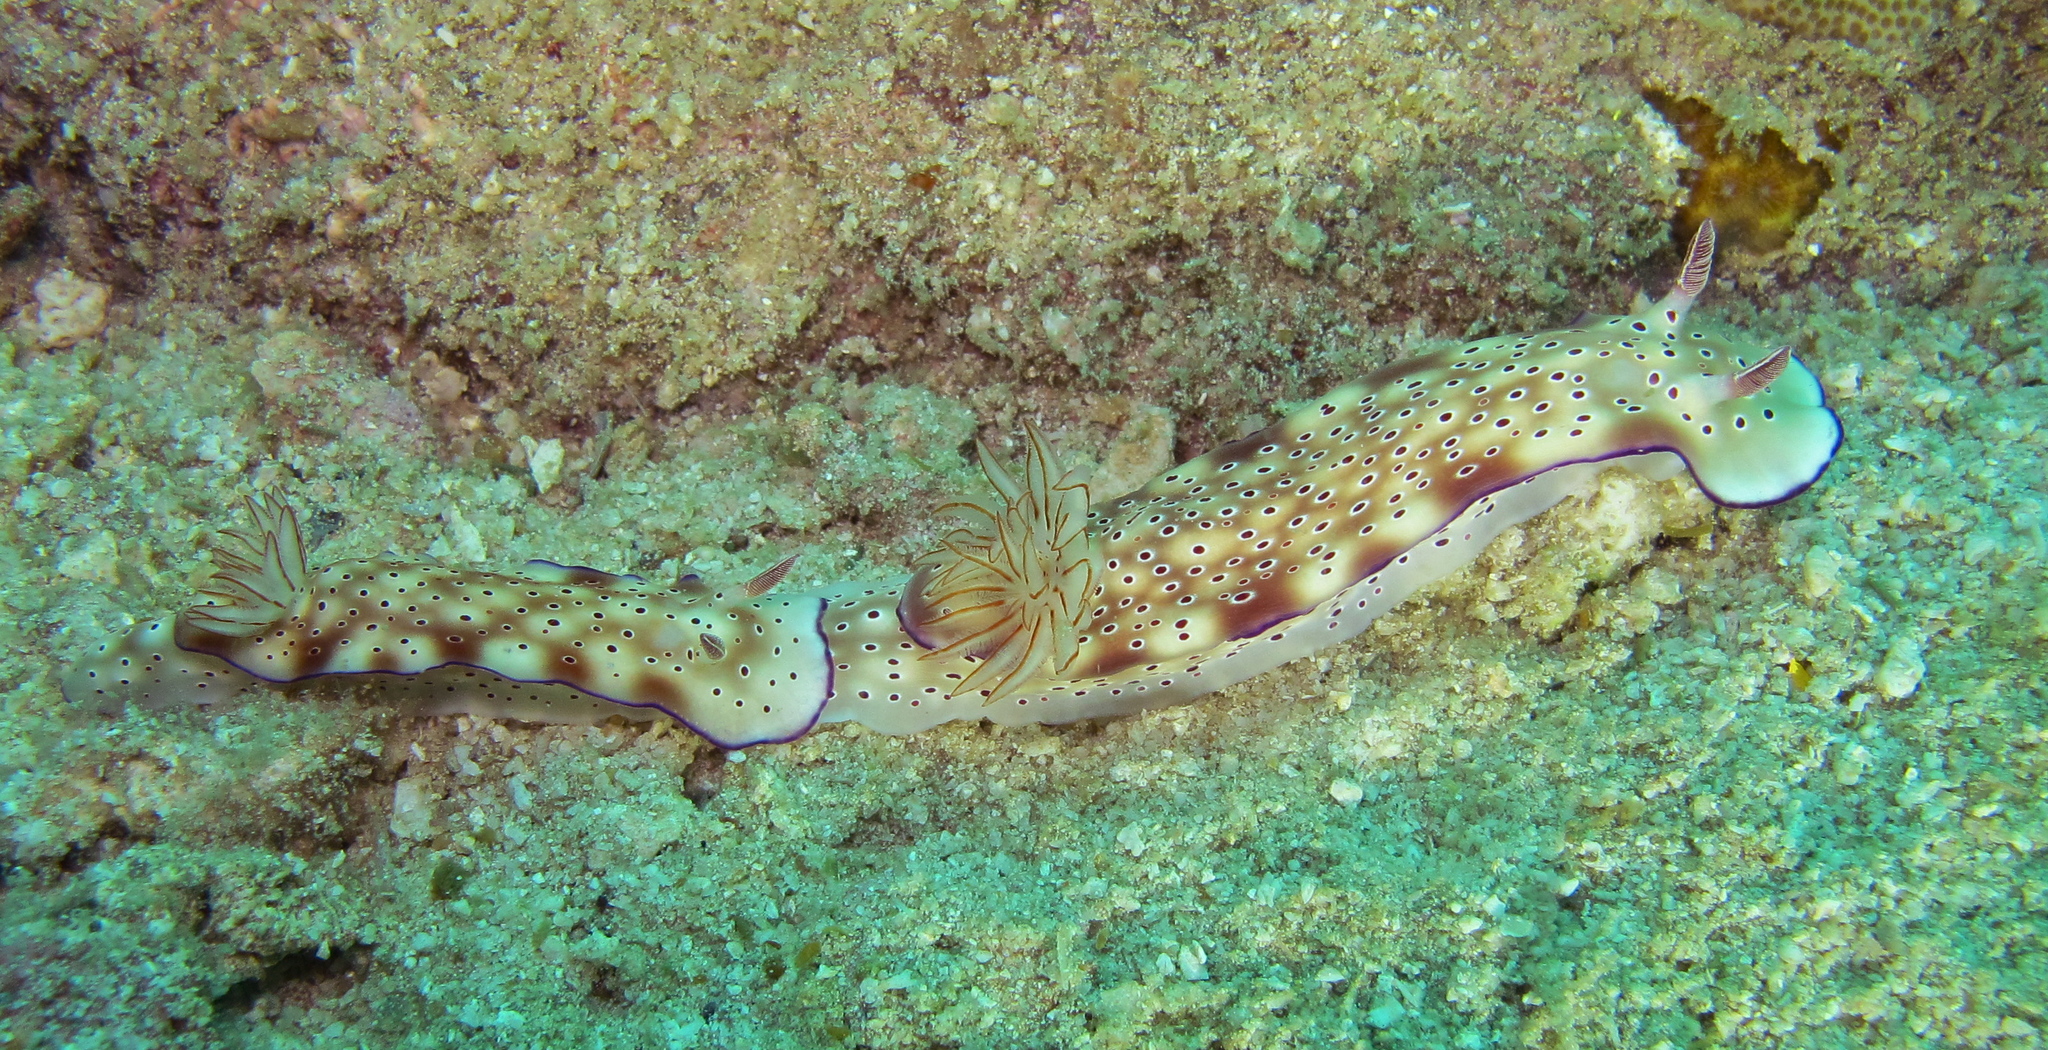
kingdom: Animalia
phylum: Mollusca
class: Gastropoda
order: Nudibranchia
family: Chromodorididae
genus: Hypselodoris
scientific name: Hypselodoris tryoni
